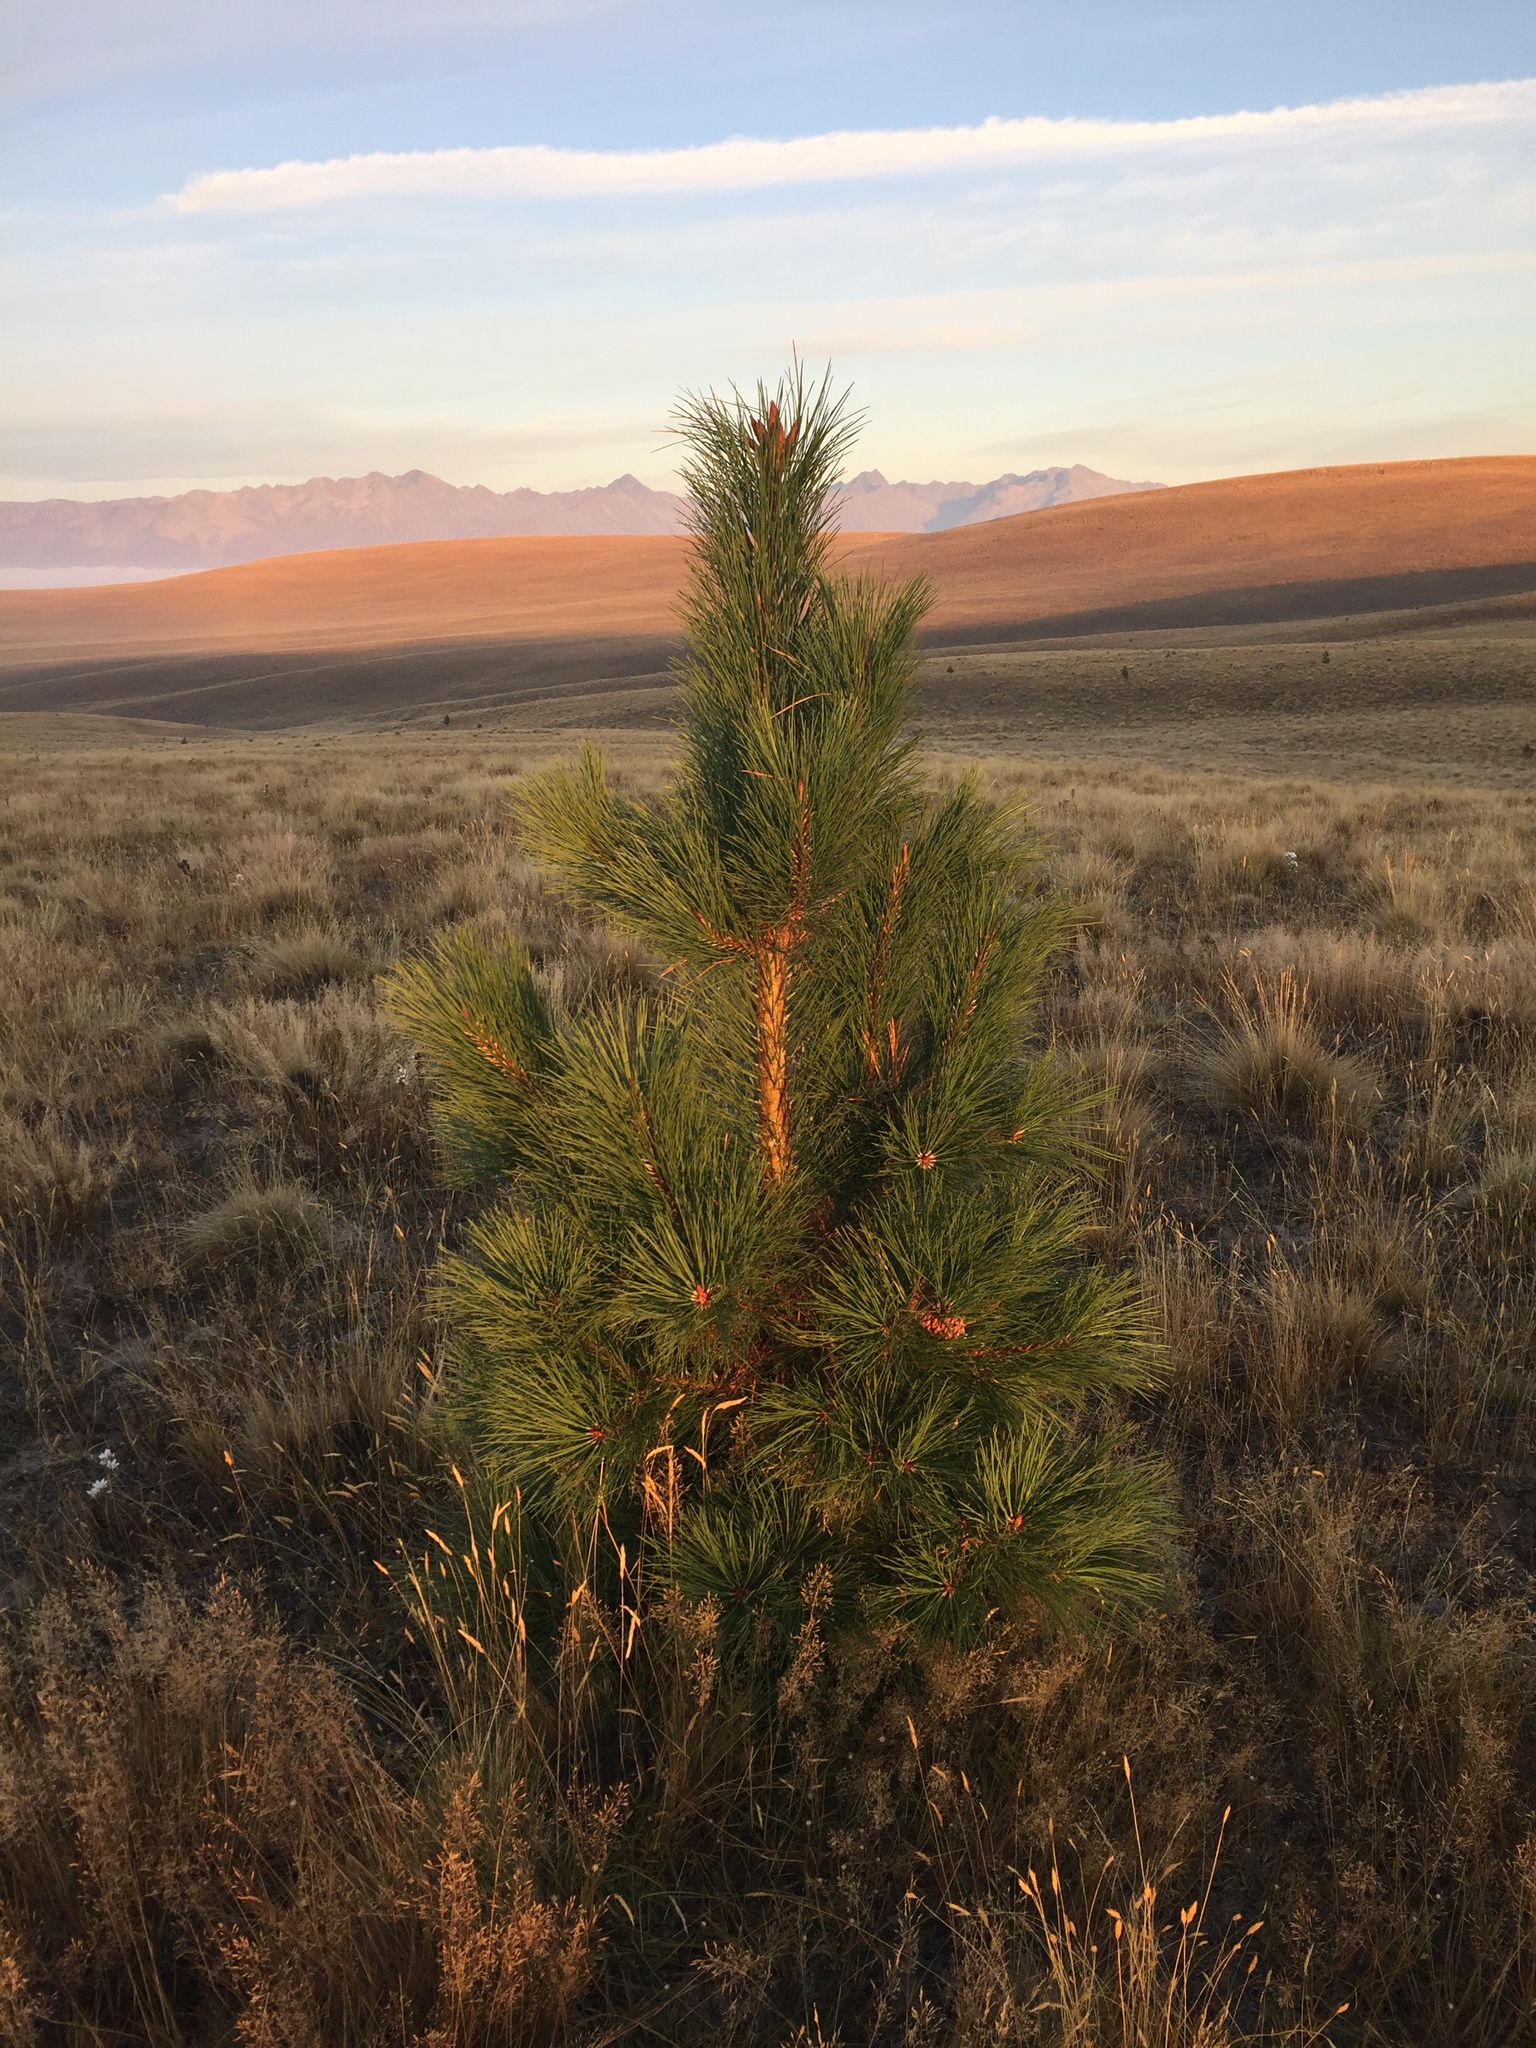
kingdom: Plantae
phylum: Tracheophyta
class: Pinopsida
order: Pinales
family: Pinaceae
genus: Pinus
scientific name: Pinus ponderosa
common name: Western yellow-pine
